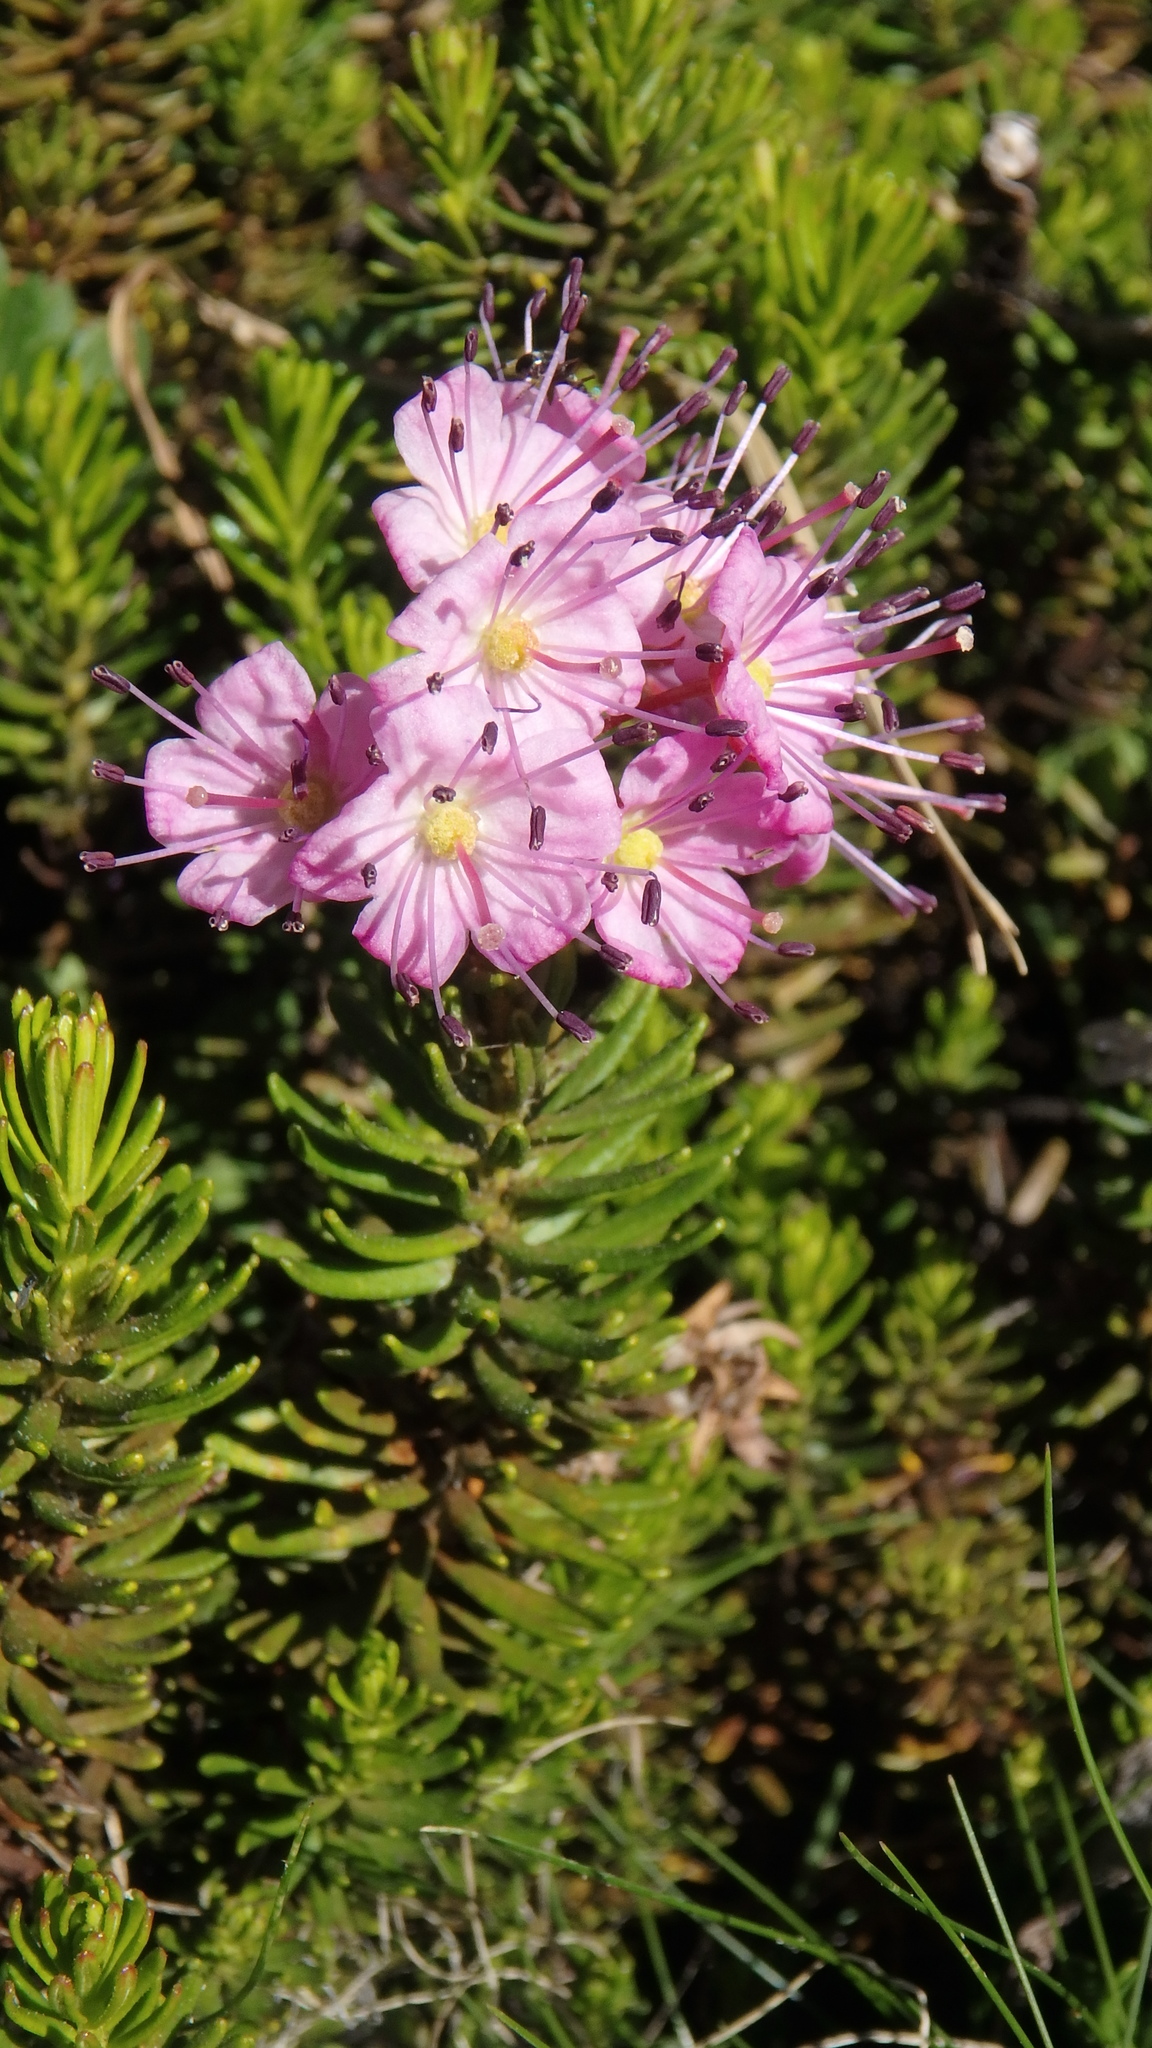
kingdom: Plantae
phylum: Tracheophyta
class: Magnoliopsida
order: Ericales
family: Ericaceae
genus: Phyllodoce
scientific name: Phyllodoce breweri
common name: Brewer's mountain-heather
